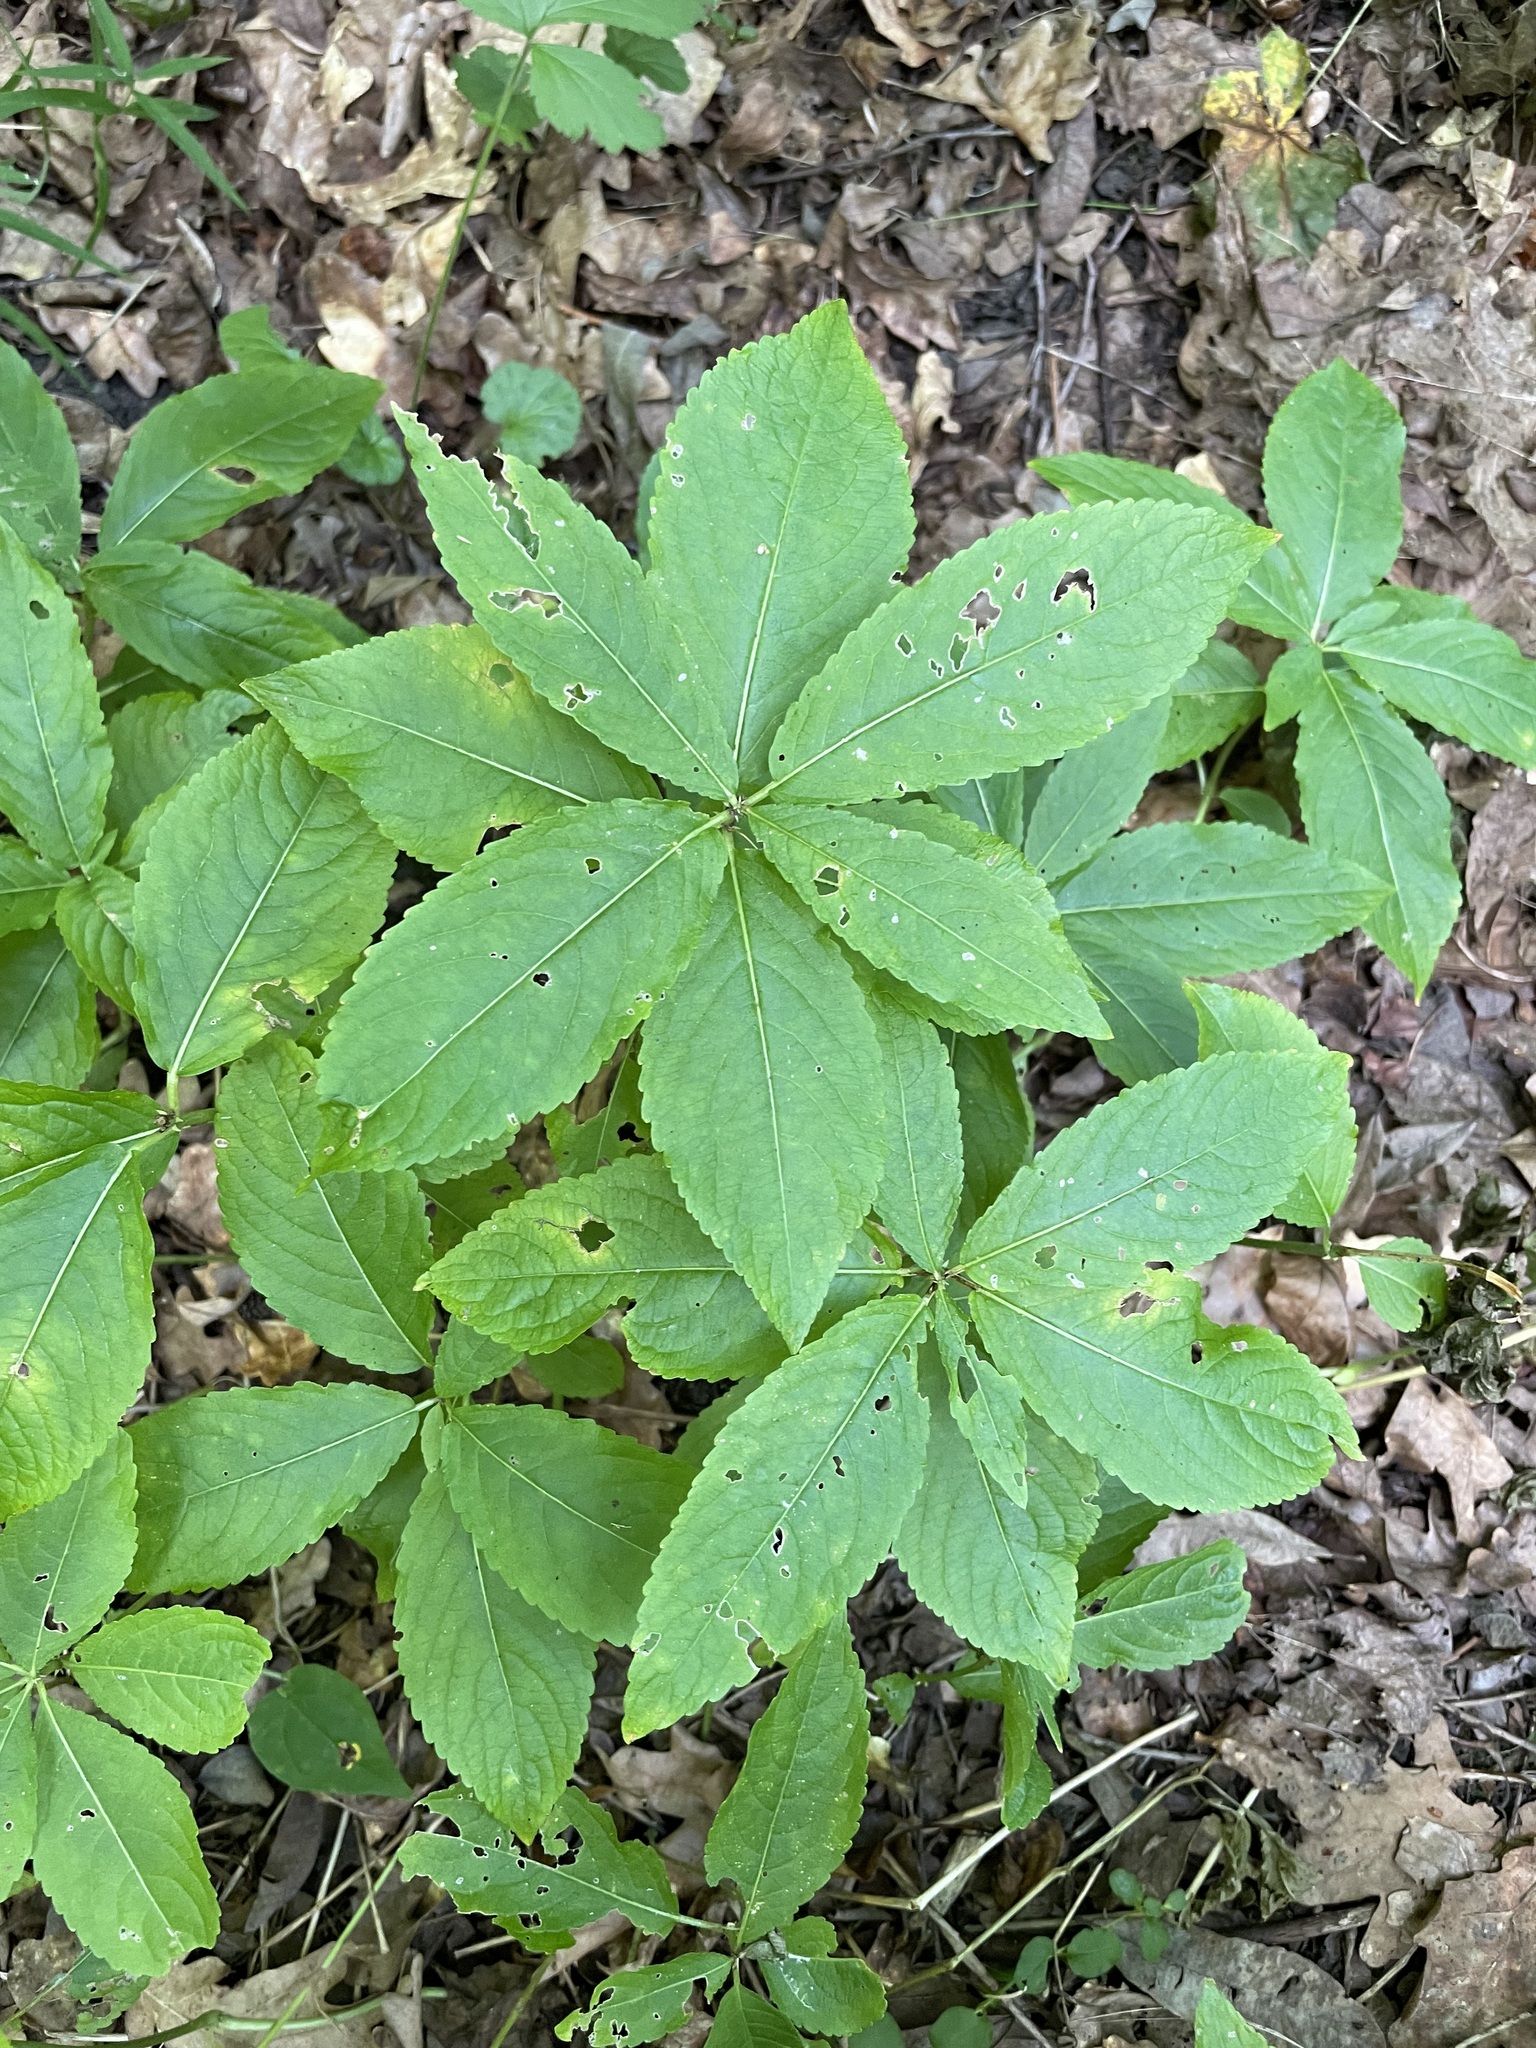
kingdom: Plantae
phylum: Tracheophyta
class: Magnoliopsida
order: Malpighiales
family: Euphorbiaceae
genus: Mercurialis
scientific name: Mercurialis perennis
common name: Dog mercury
